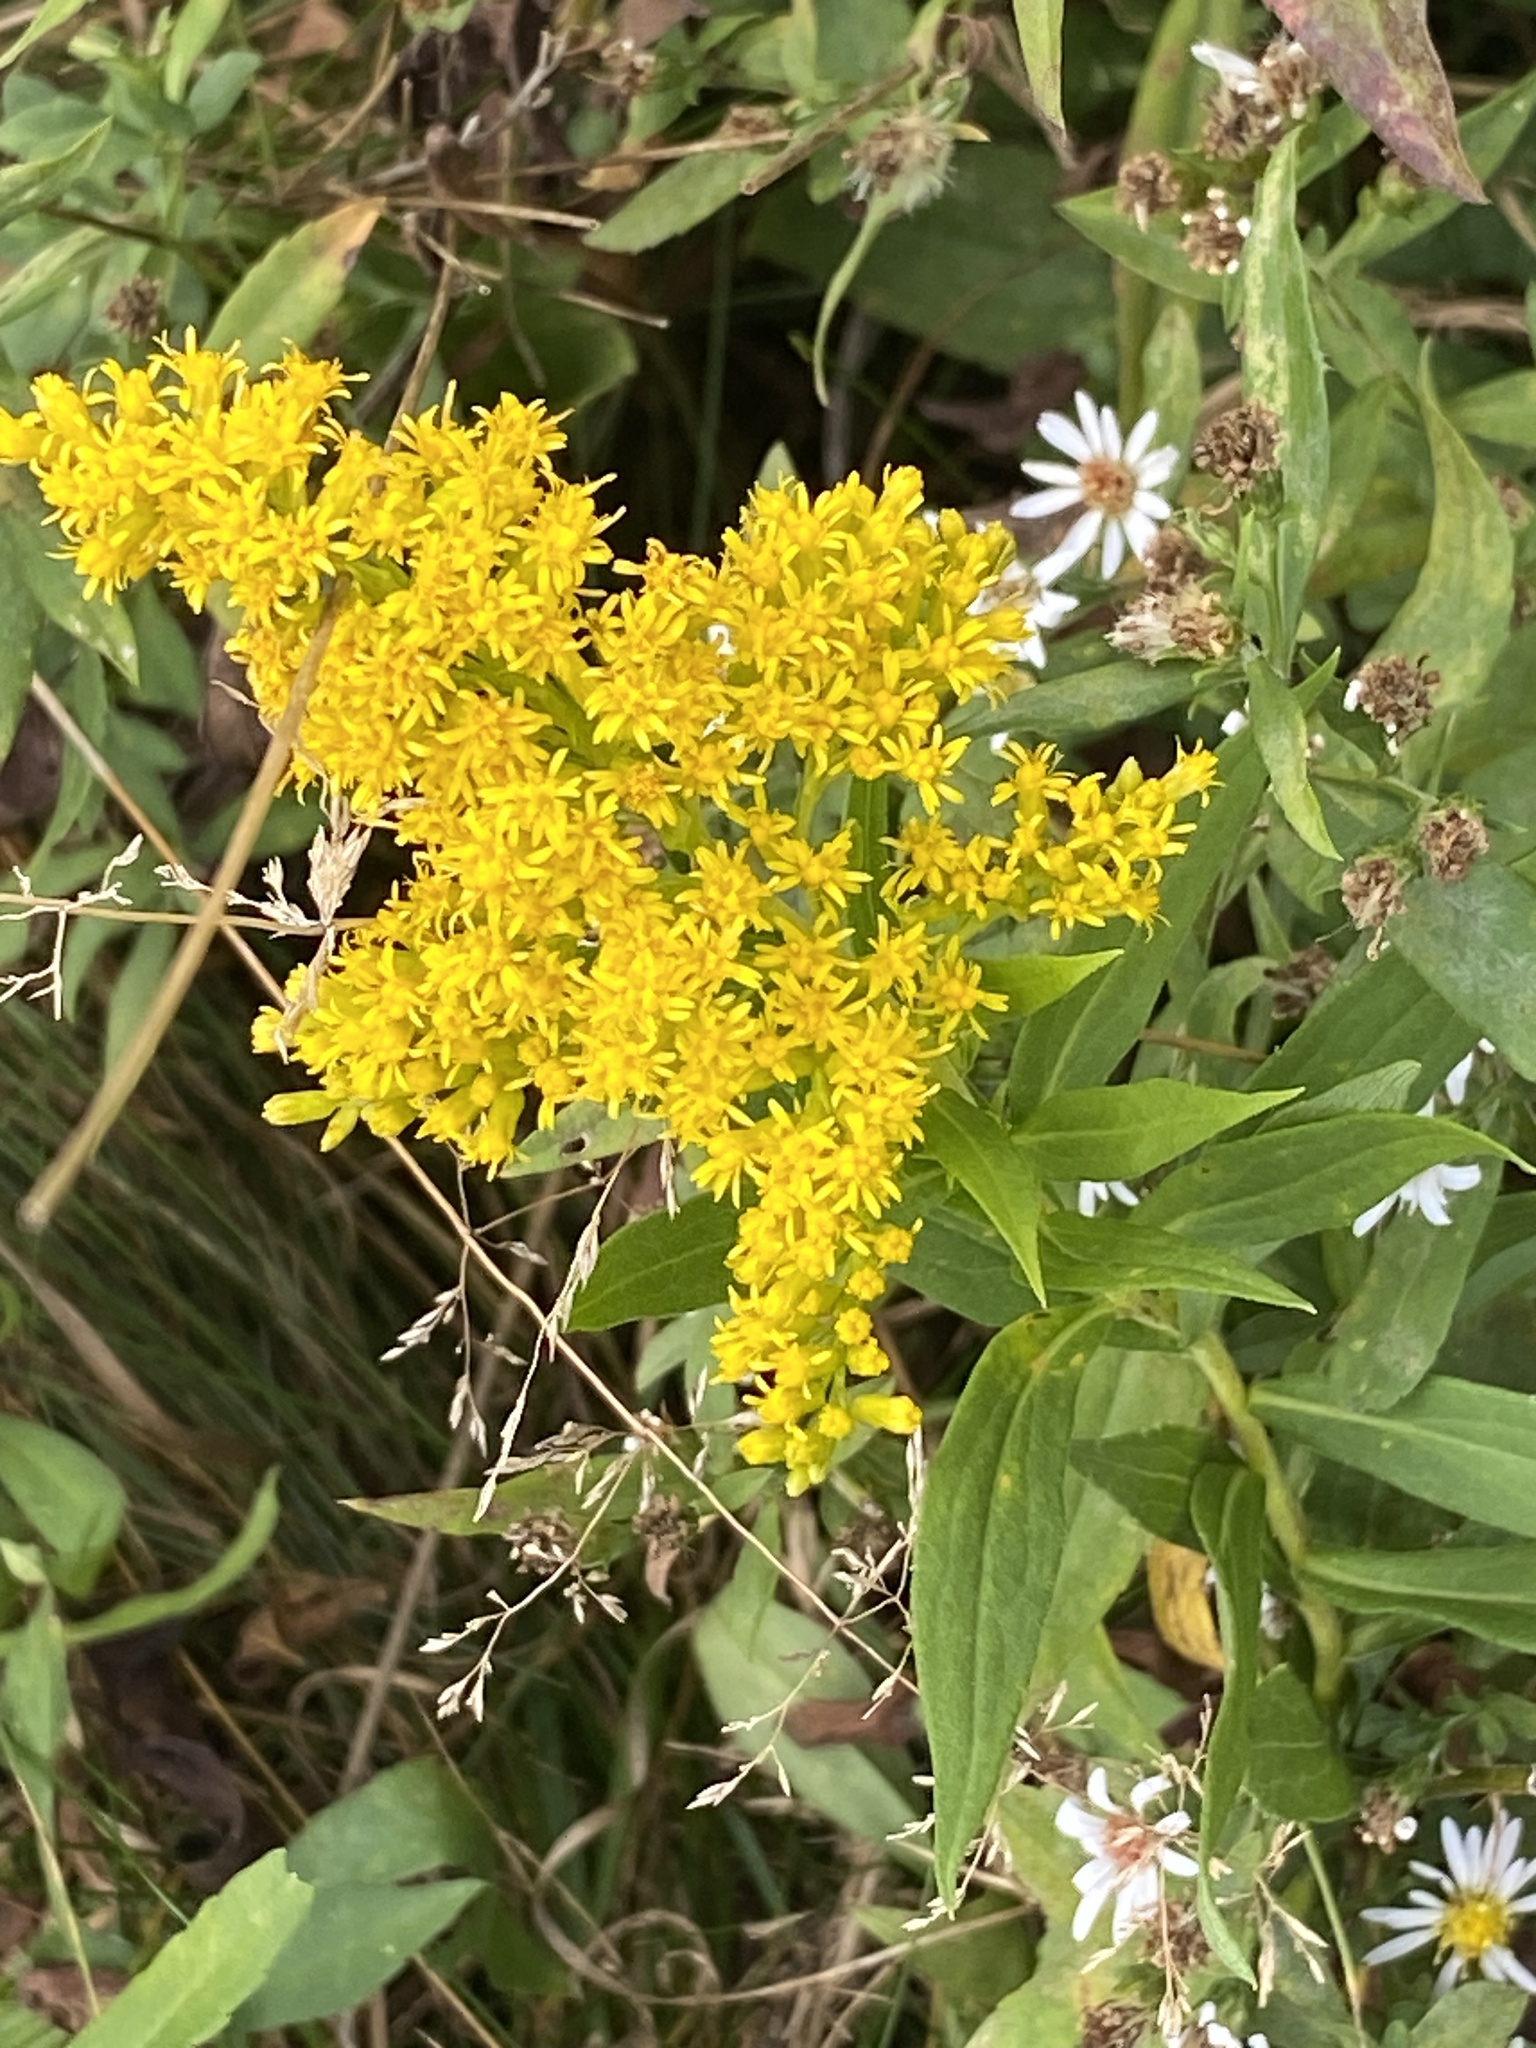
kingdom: Plantae
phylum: Tracheophyta
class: Magnoliopsida
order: Asterales
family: Asteraceae
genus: Solidago
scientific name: Solidago altissima
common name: Late goldenrod
